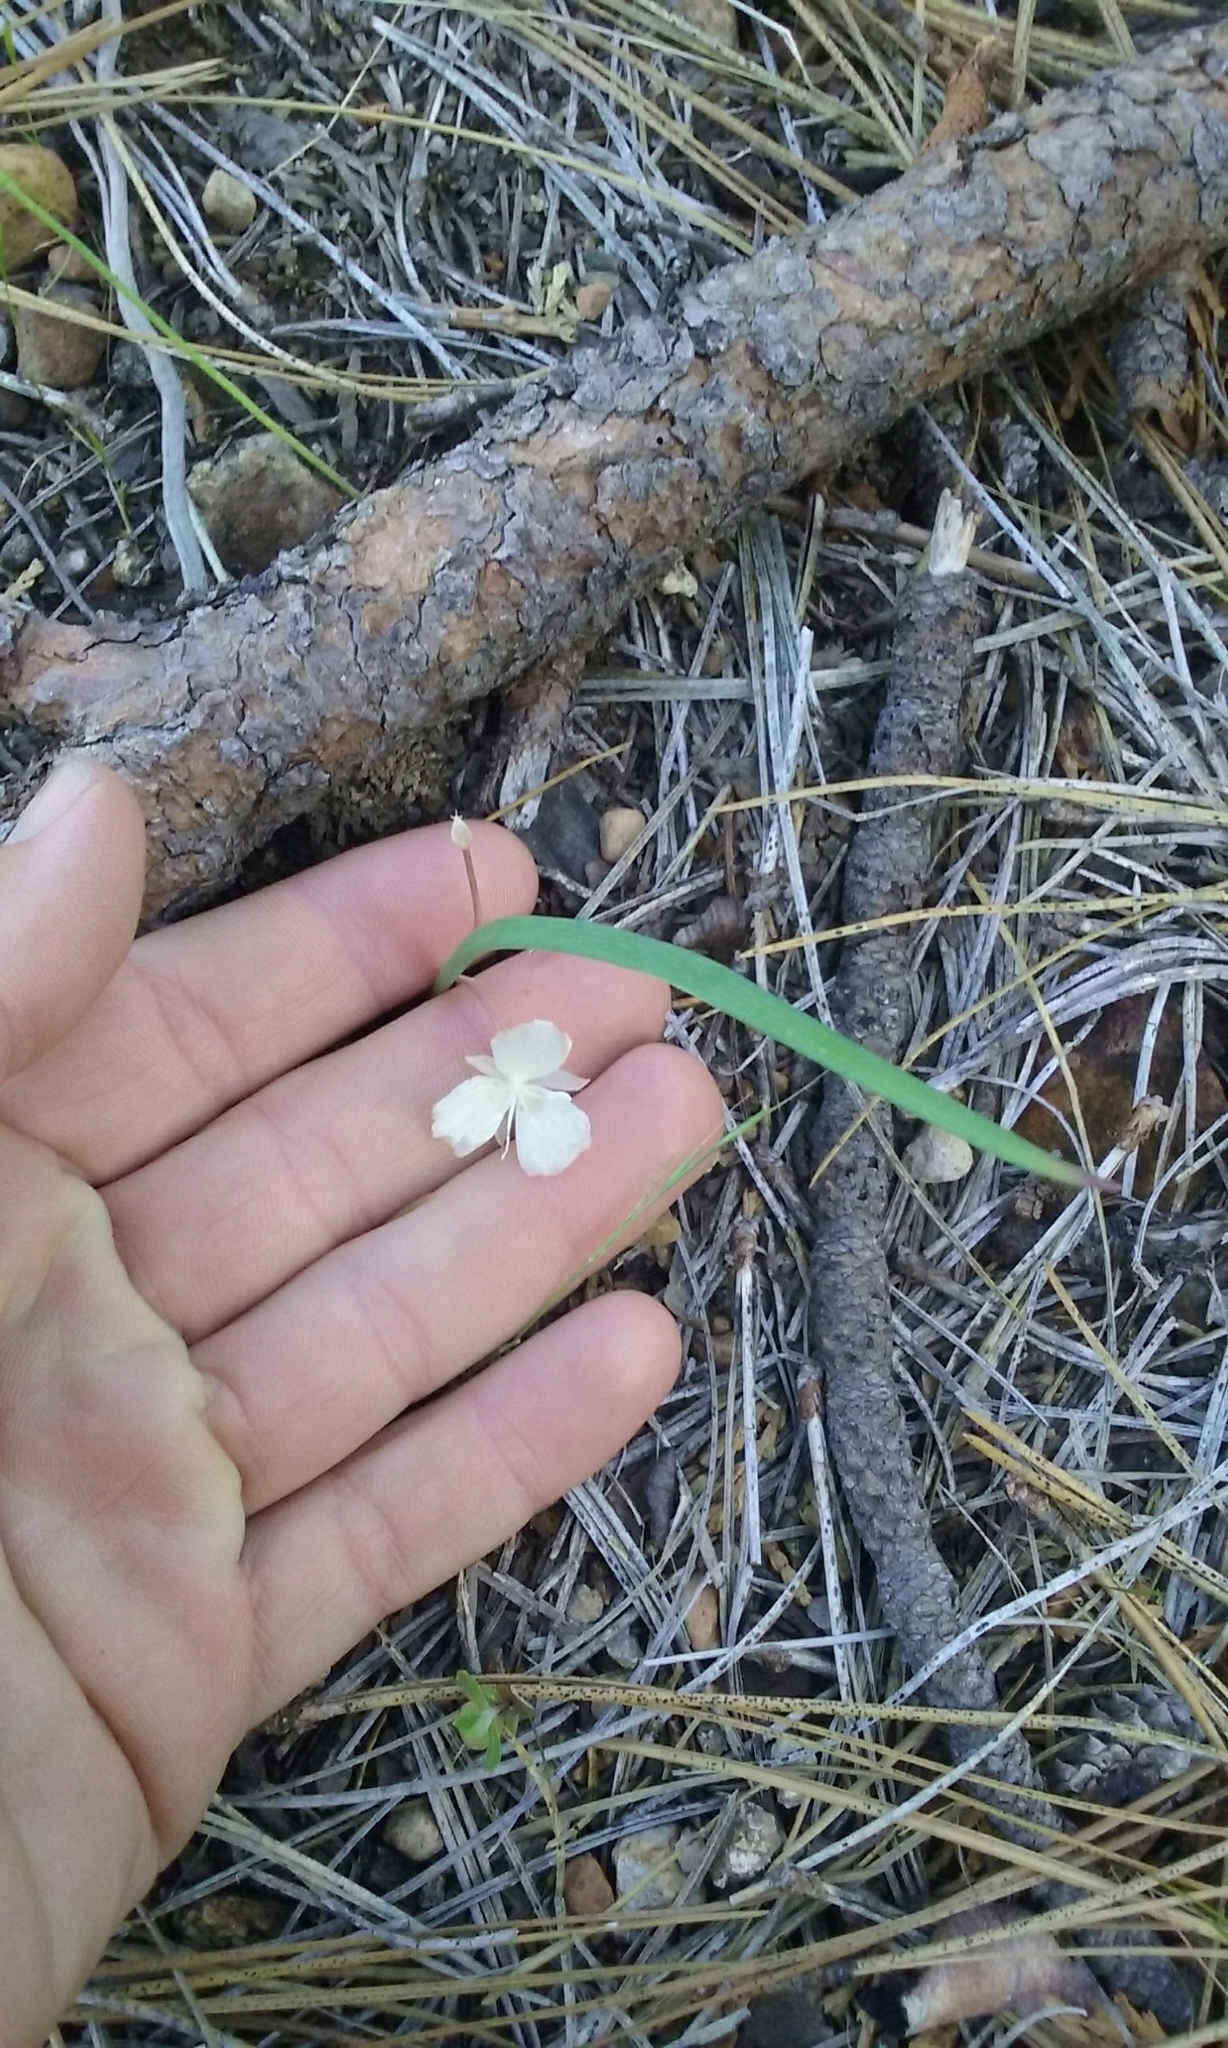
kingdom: Plantae
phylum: Tracheophyta
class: Liliopsida
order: Liliales
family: Liliaceae
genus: Calochortus
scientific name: Calochortus minimus
